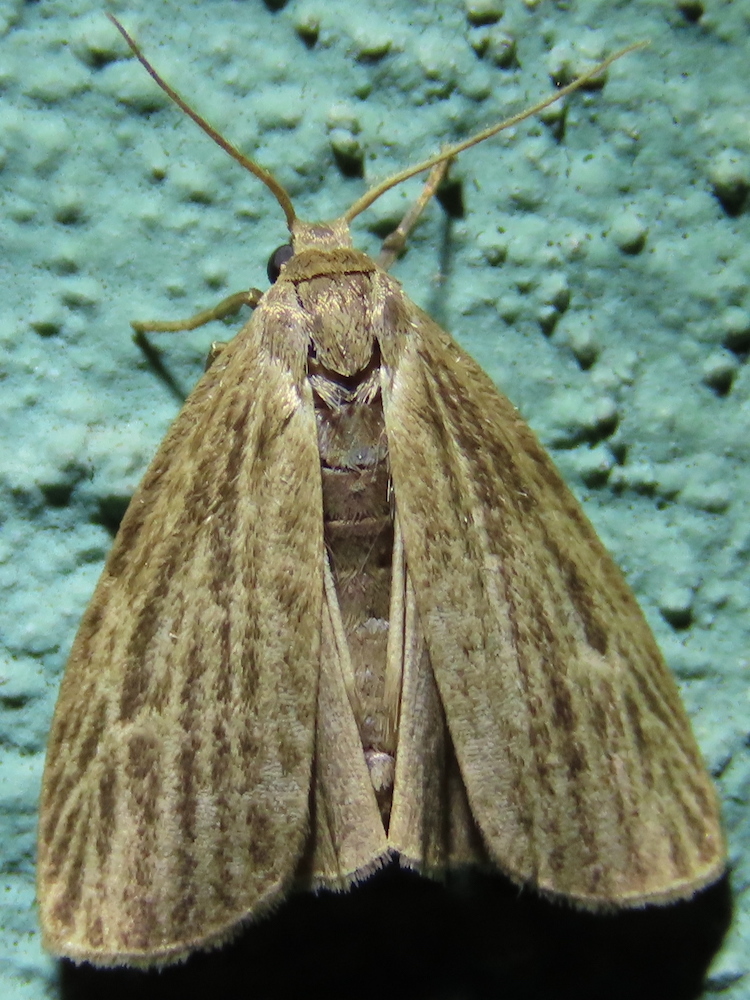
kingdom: Animalia
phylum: Arthropoda
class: Insecta
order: Lepidoptera
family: Erebidae
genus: Crambidia
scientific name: Crambidia pallida
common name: Pale lichen moth
